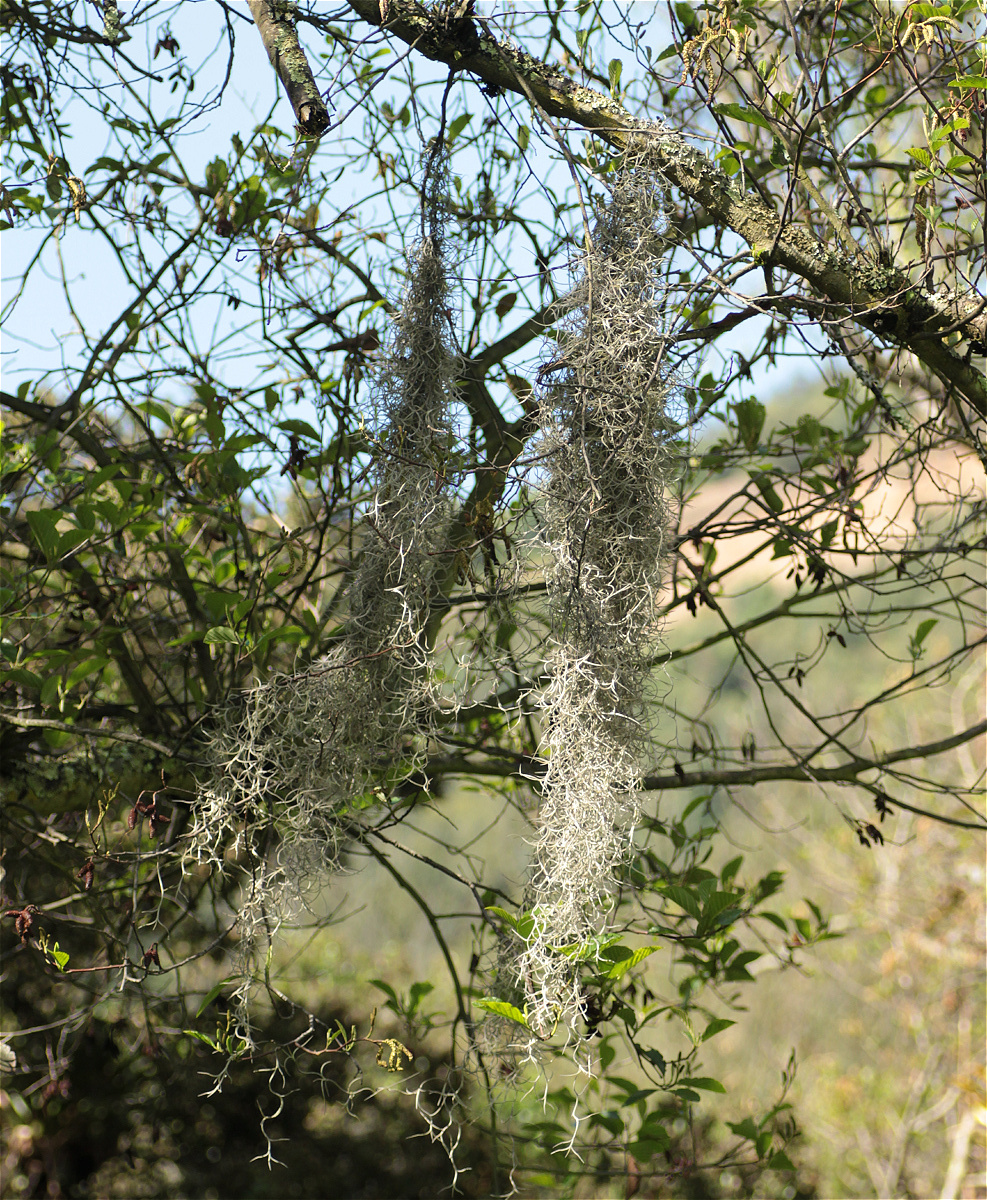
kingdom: Plantae
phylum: Tracheophyta
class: Liliopsida
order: Poales
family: Bromeliaceae
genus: Tillandsia
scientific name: Tillandsia usneoides
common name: Spanish moss
